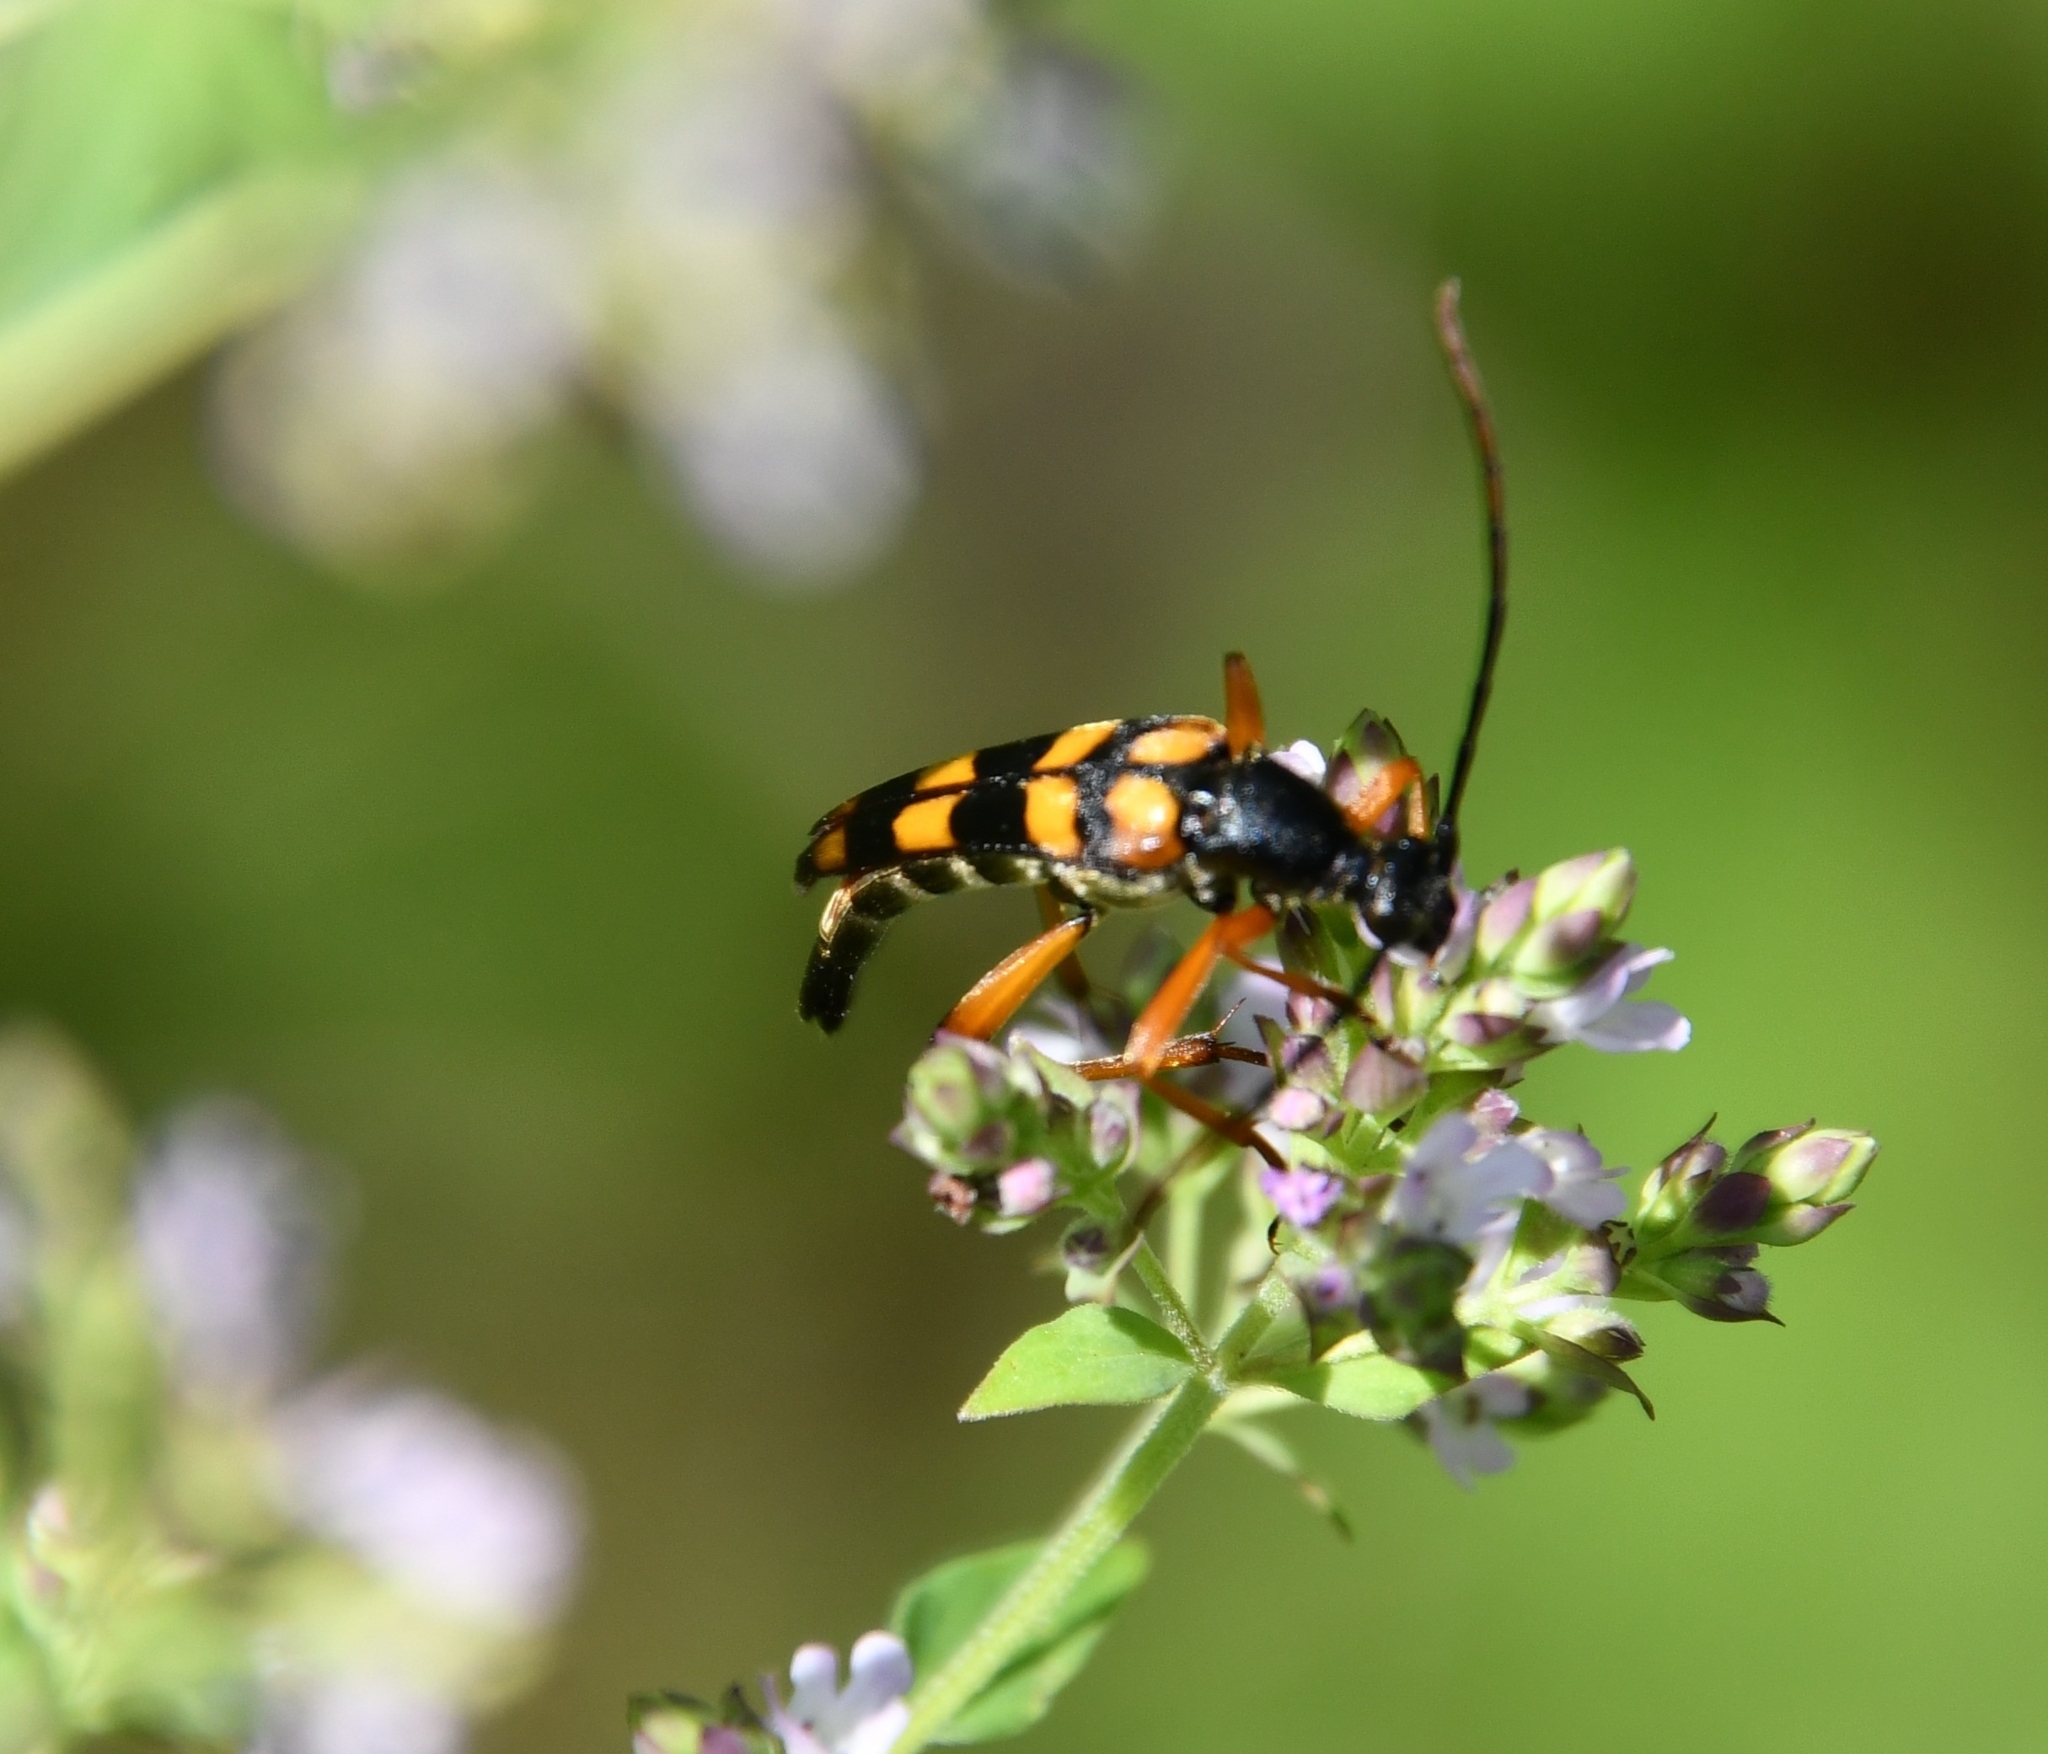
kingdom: Animalia
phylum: Arthropoda
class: Insecta
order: Coleoptera
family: Cerambycidae
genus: Strangalia
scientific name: Strangalia attenuata
